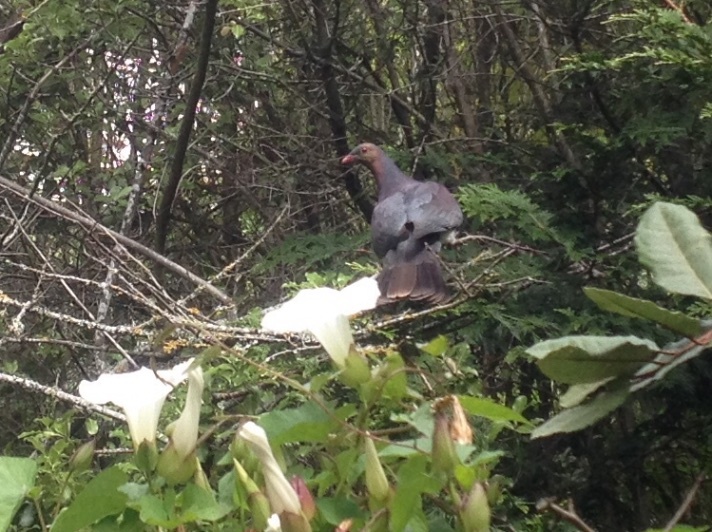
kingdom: Animalia
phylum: Chordata
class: Aves
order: Columbiformes
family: Columbidae
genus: Hemiphaga
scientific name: Hemiphaga novaeseelandiae
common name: New zealand pigeon
